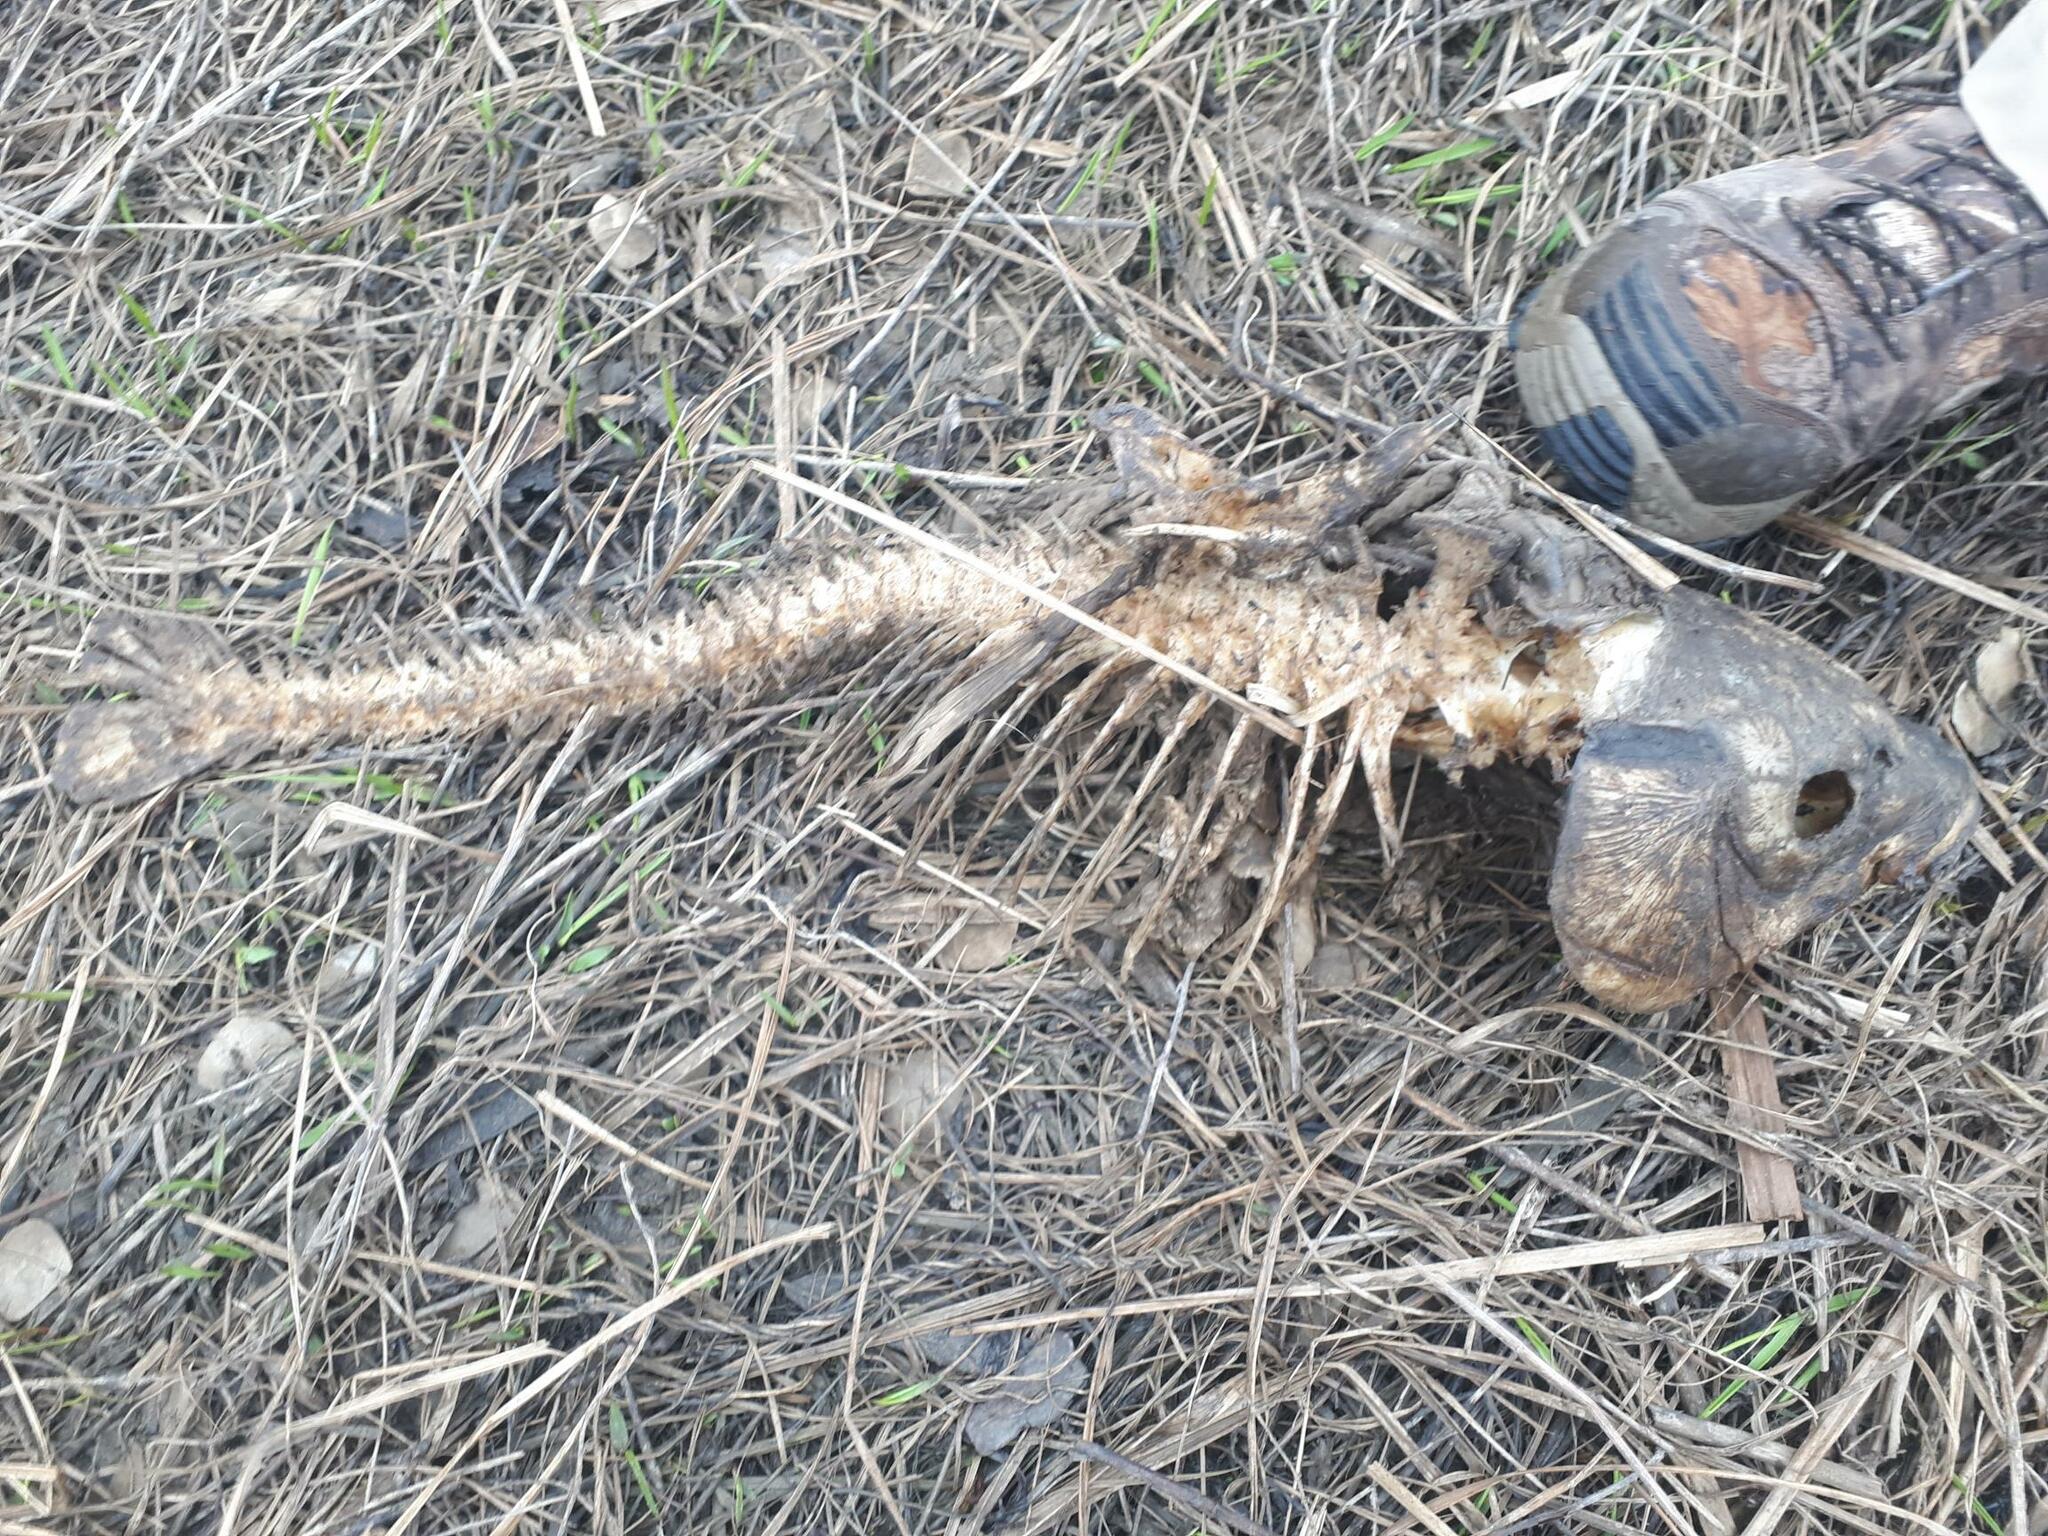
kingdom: Animalia
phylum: Chordata
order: Cypriniformes
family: Cyprinidae
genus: Cyprinus
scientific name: Cyprinus carpio
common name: Common carp
